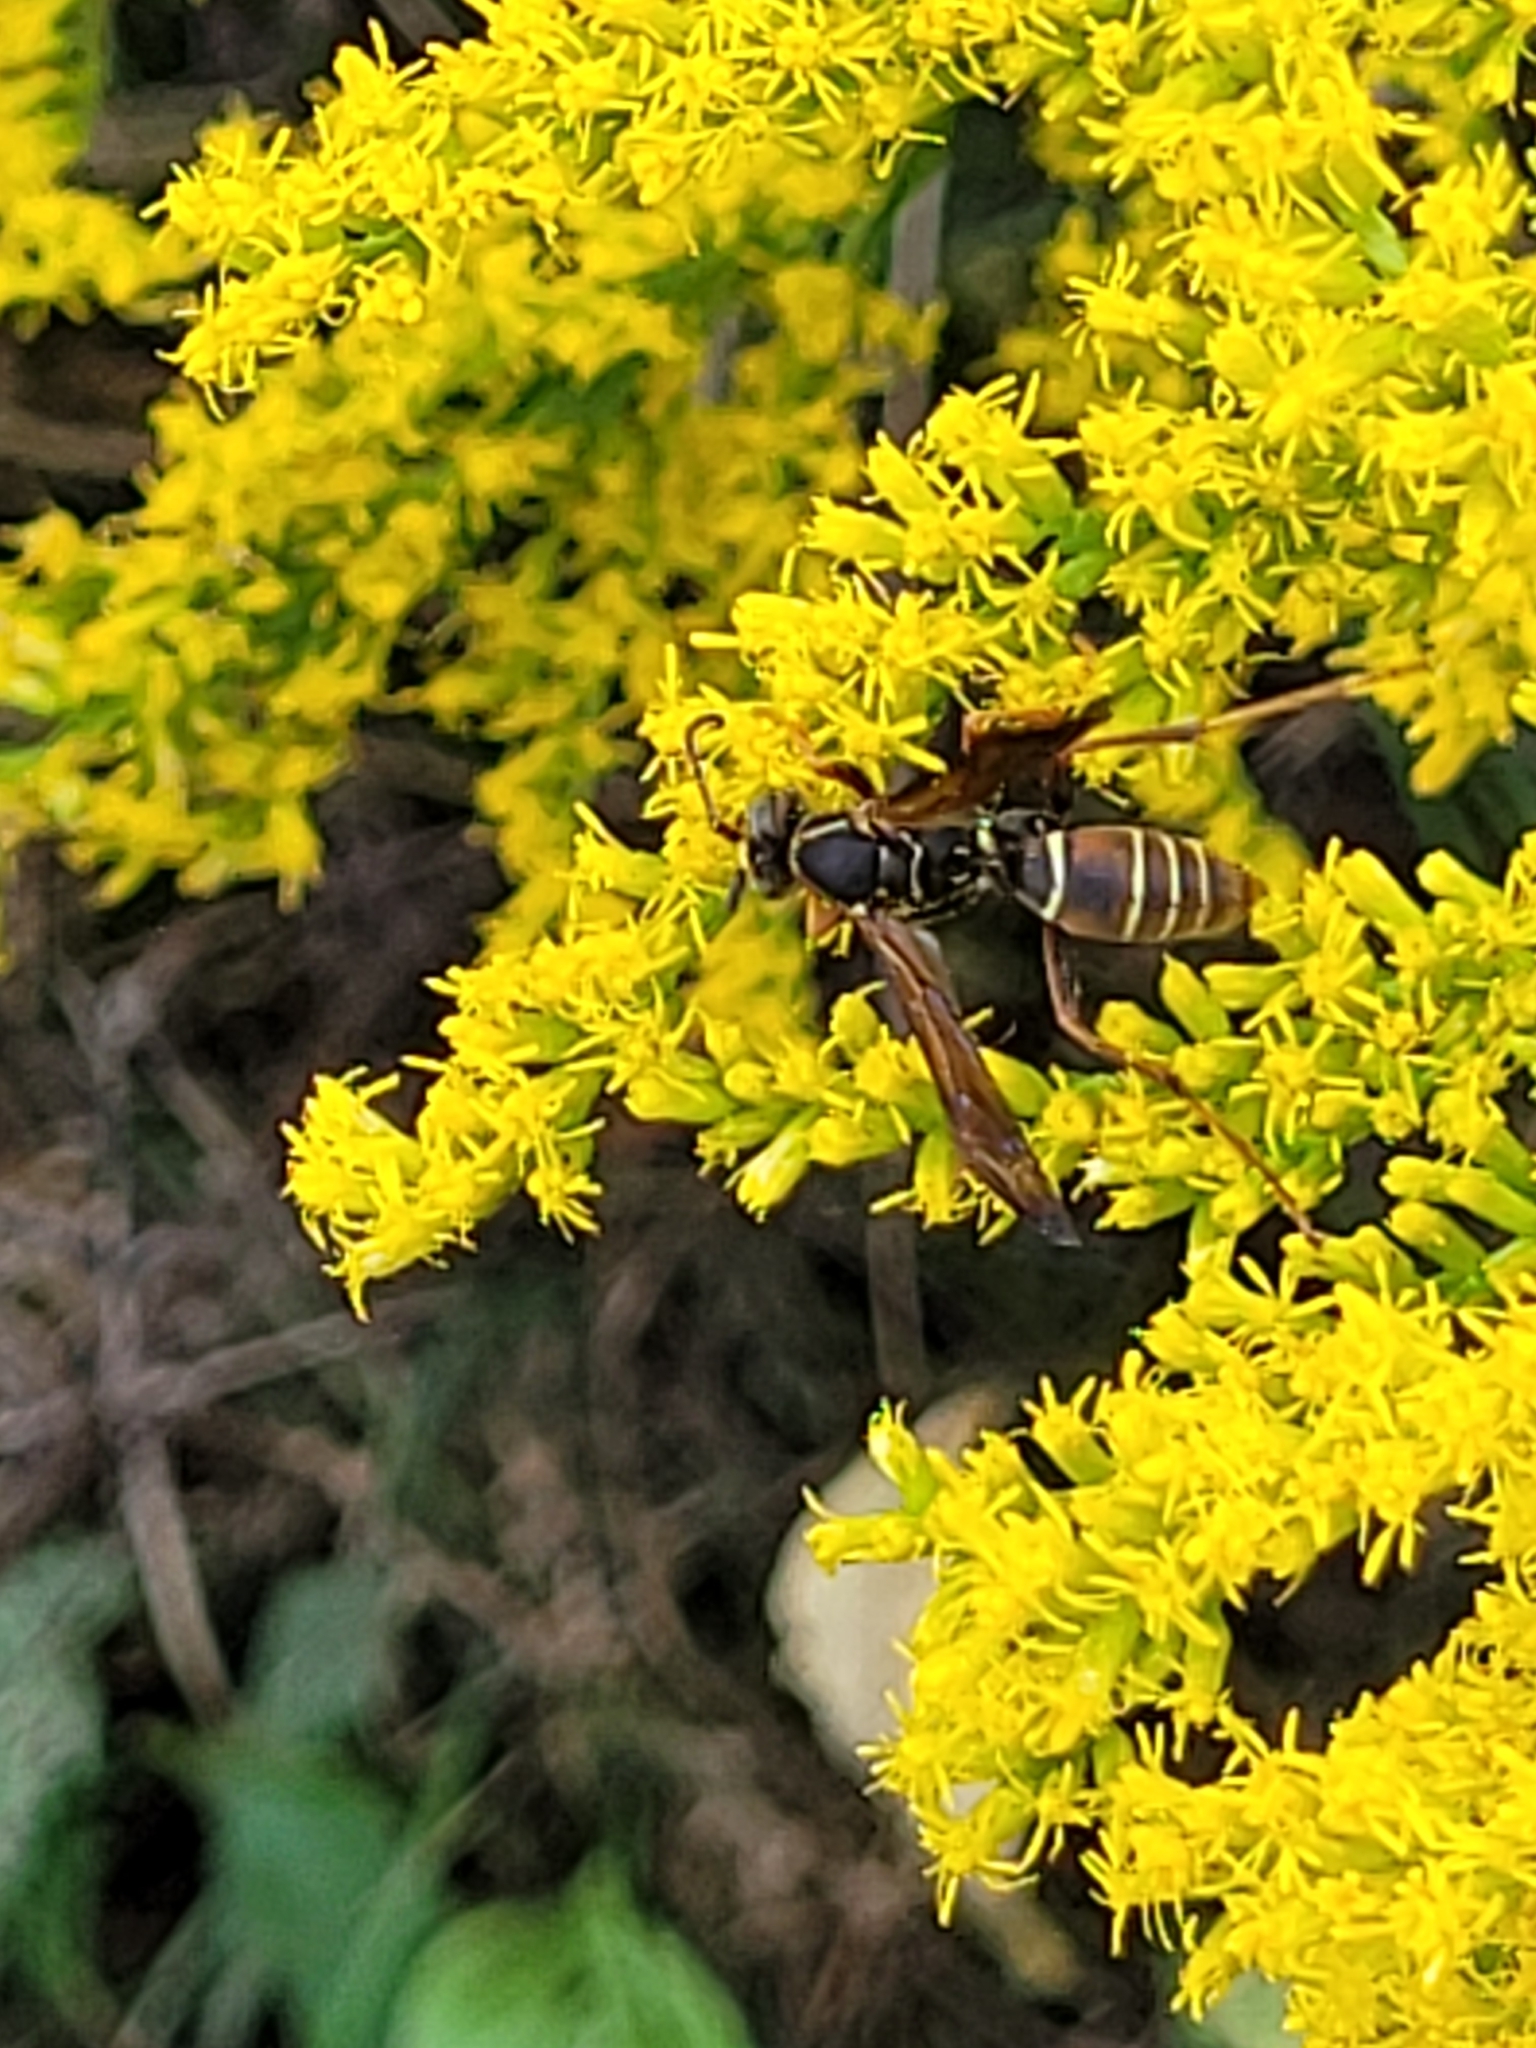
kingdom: Animalia
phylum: Arthropoda
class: Insecta
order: Hymenoptera
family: Eumenidae
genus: Polistes
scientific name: Polistes fuscatus
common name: Dark paper wasp
